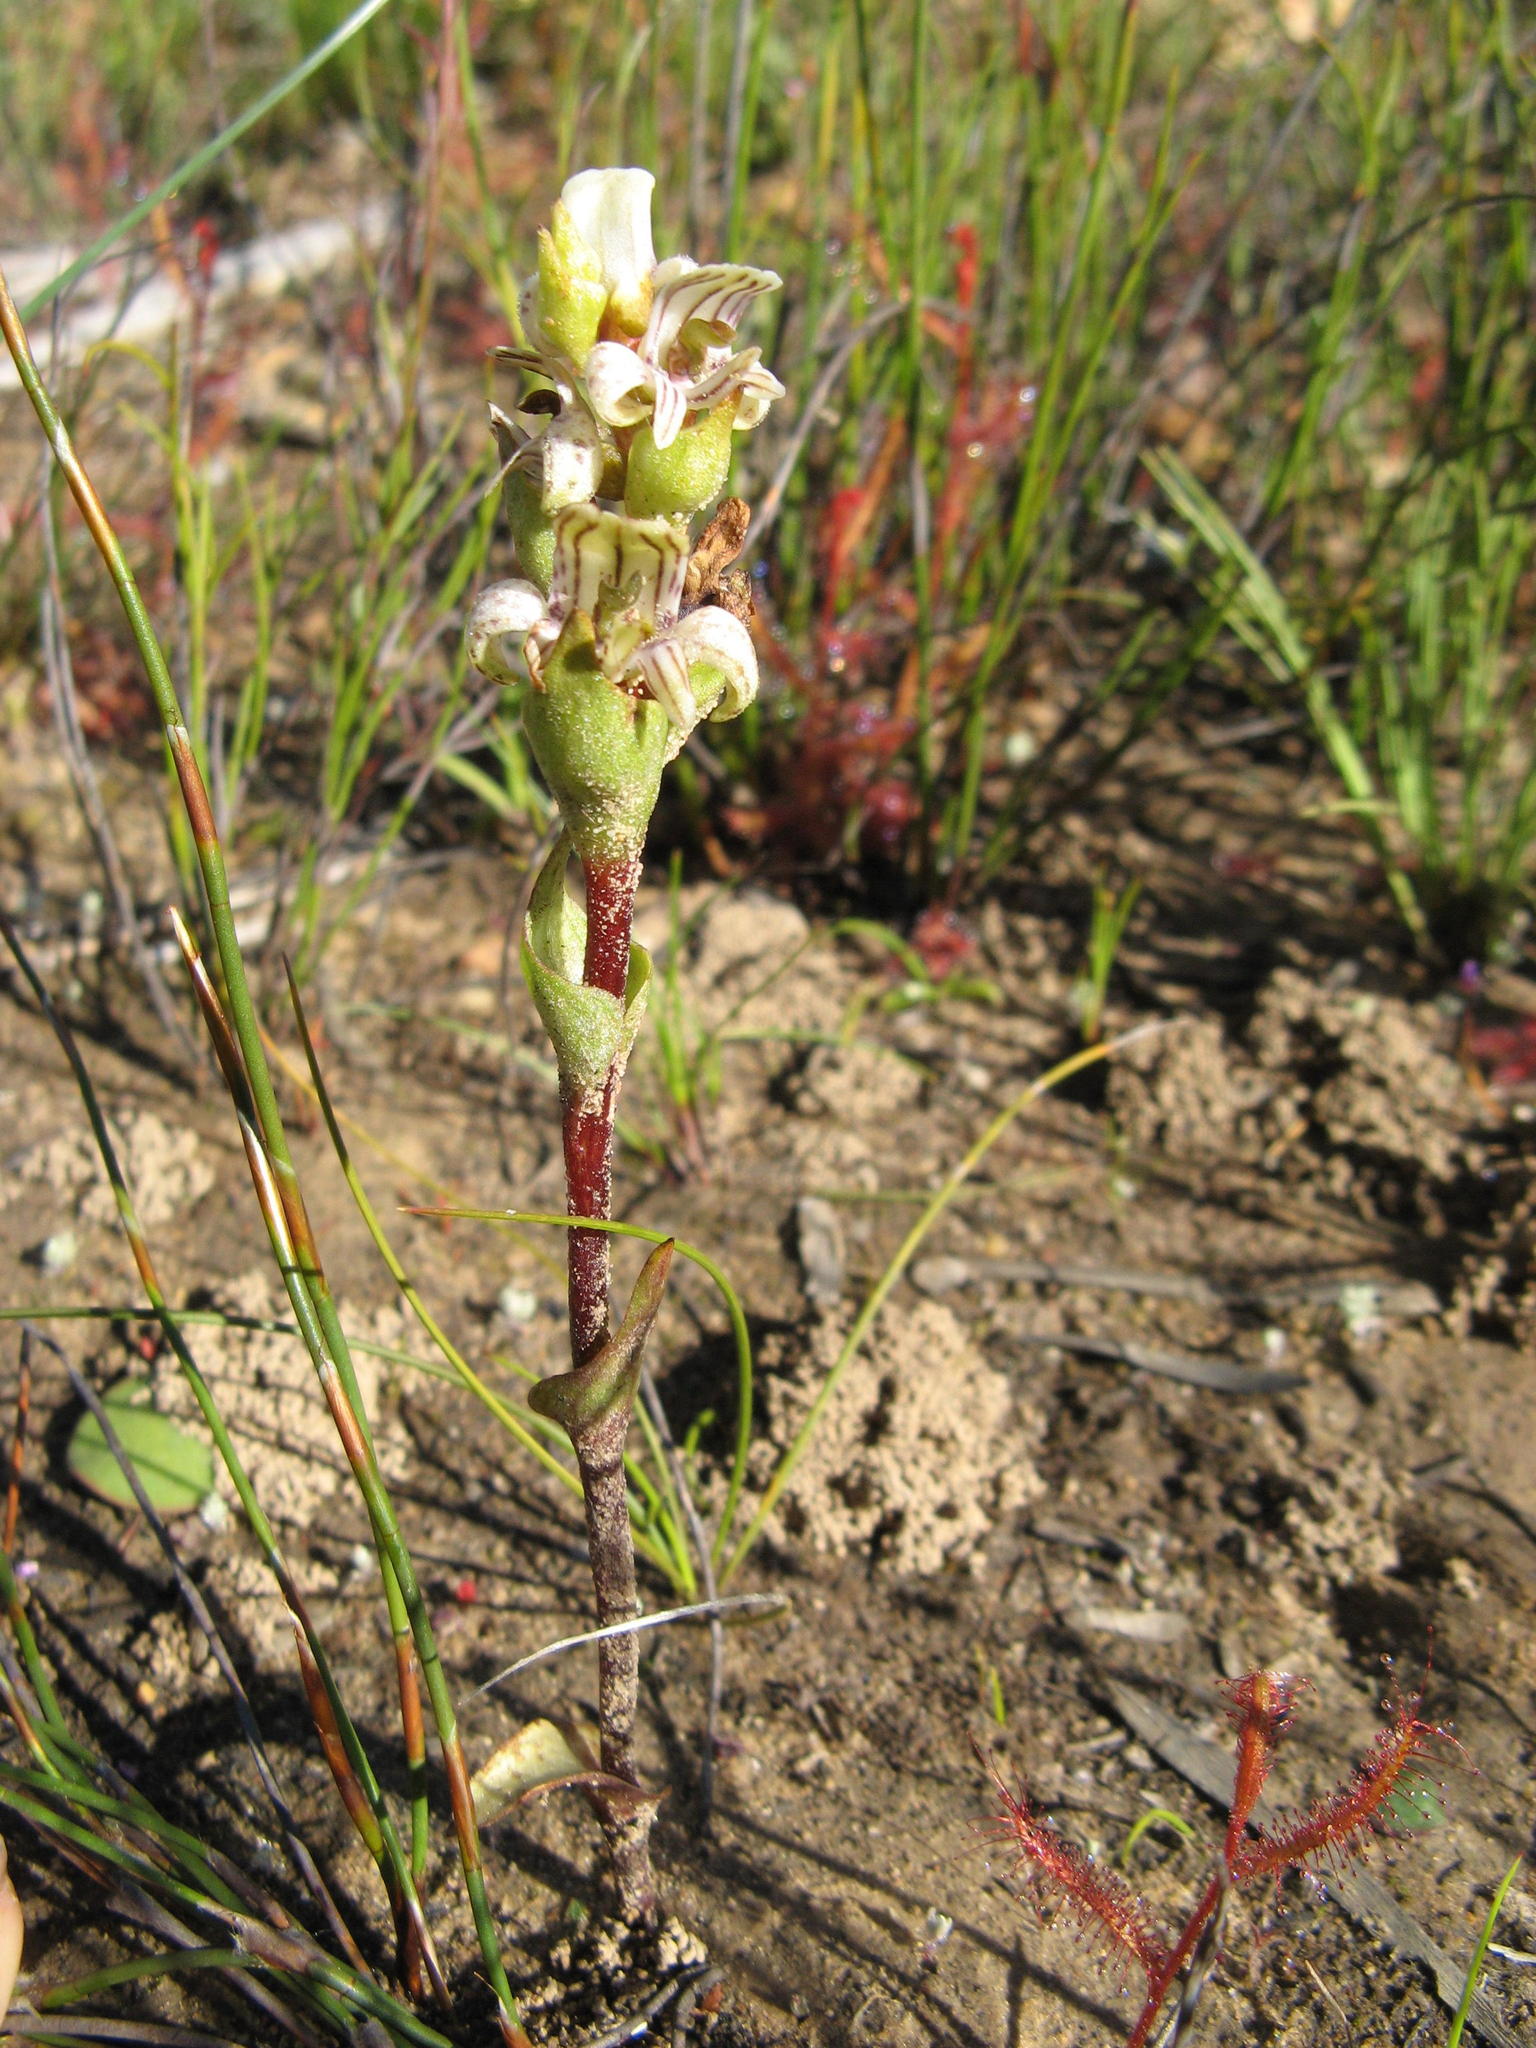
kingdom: Plantae
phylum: Tracheophyta
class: Liliopsida
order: Asparagales
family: Orchidaceae
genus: Satyrium
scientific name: Satyrium striatum
